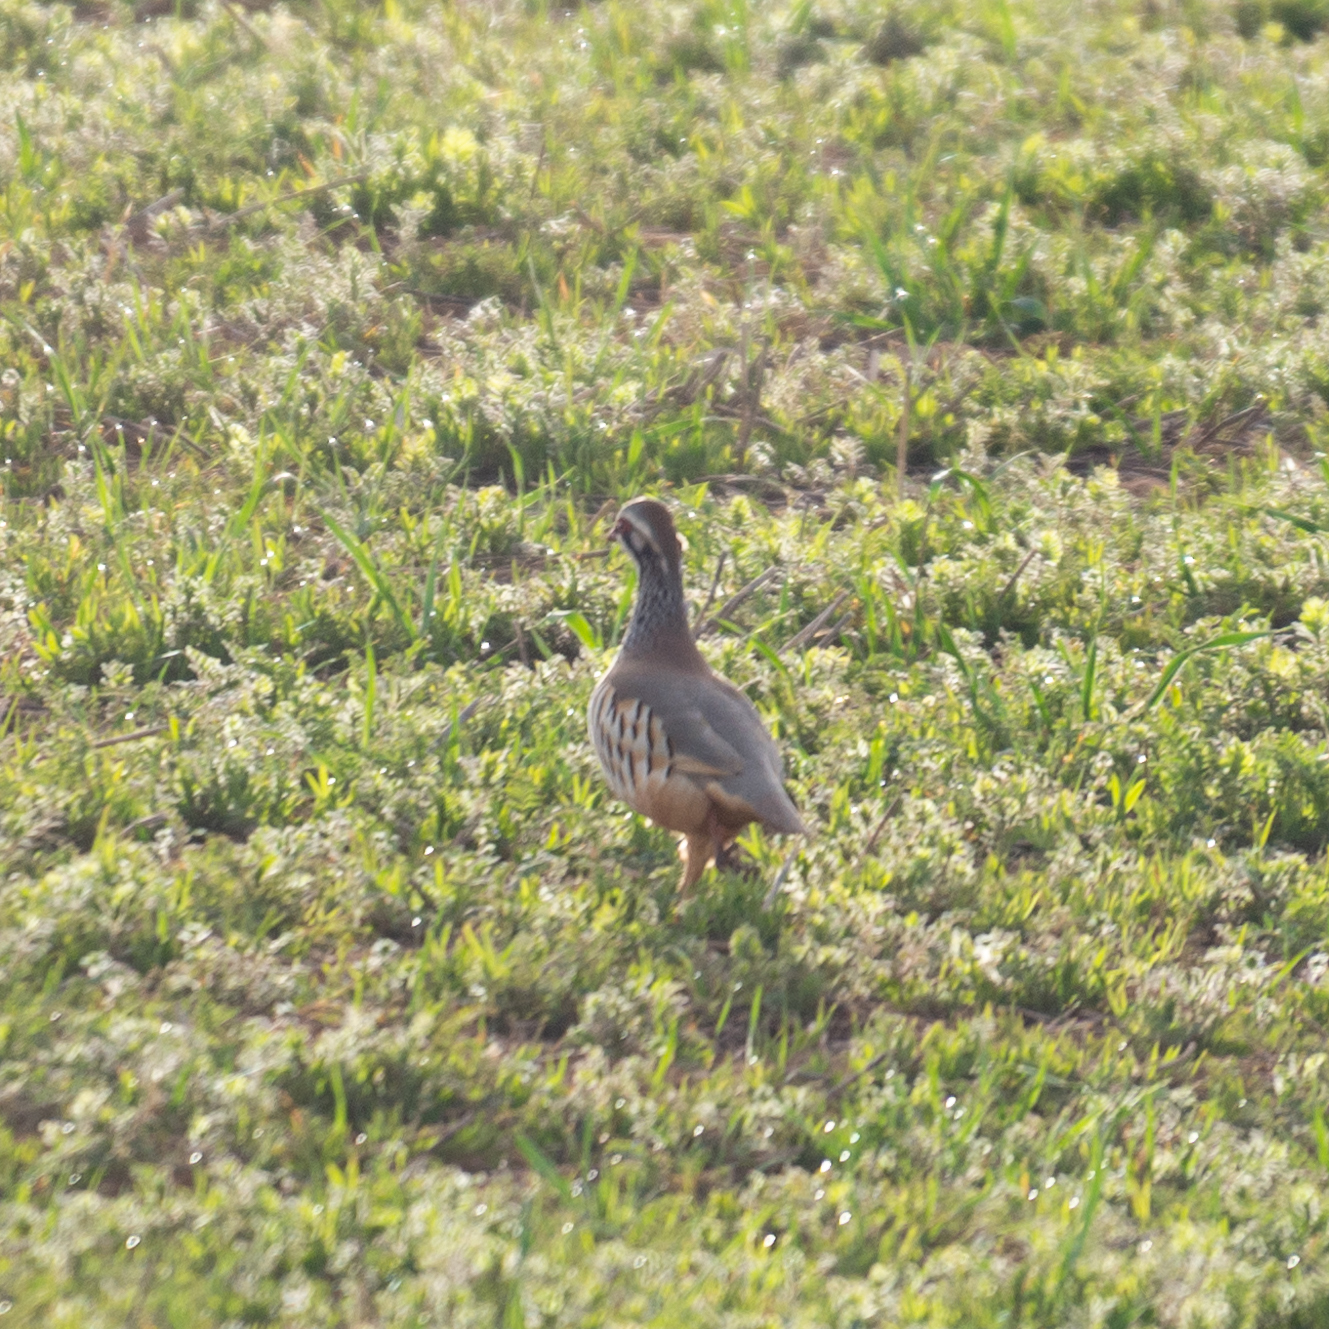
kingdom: Animalia
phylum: Chordata
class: Aves
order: Galliformes
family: Phasianidae
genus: Alectoris
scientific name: Alectoris rufa
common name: Red-legged partridge
